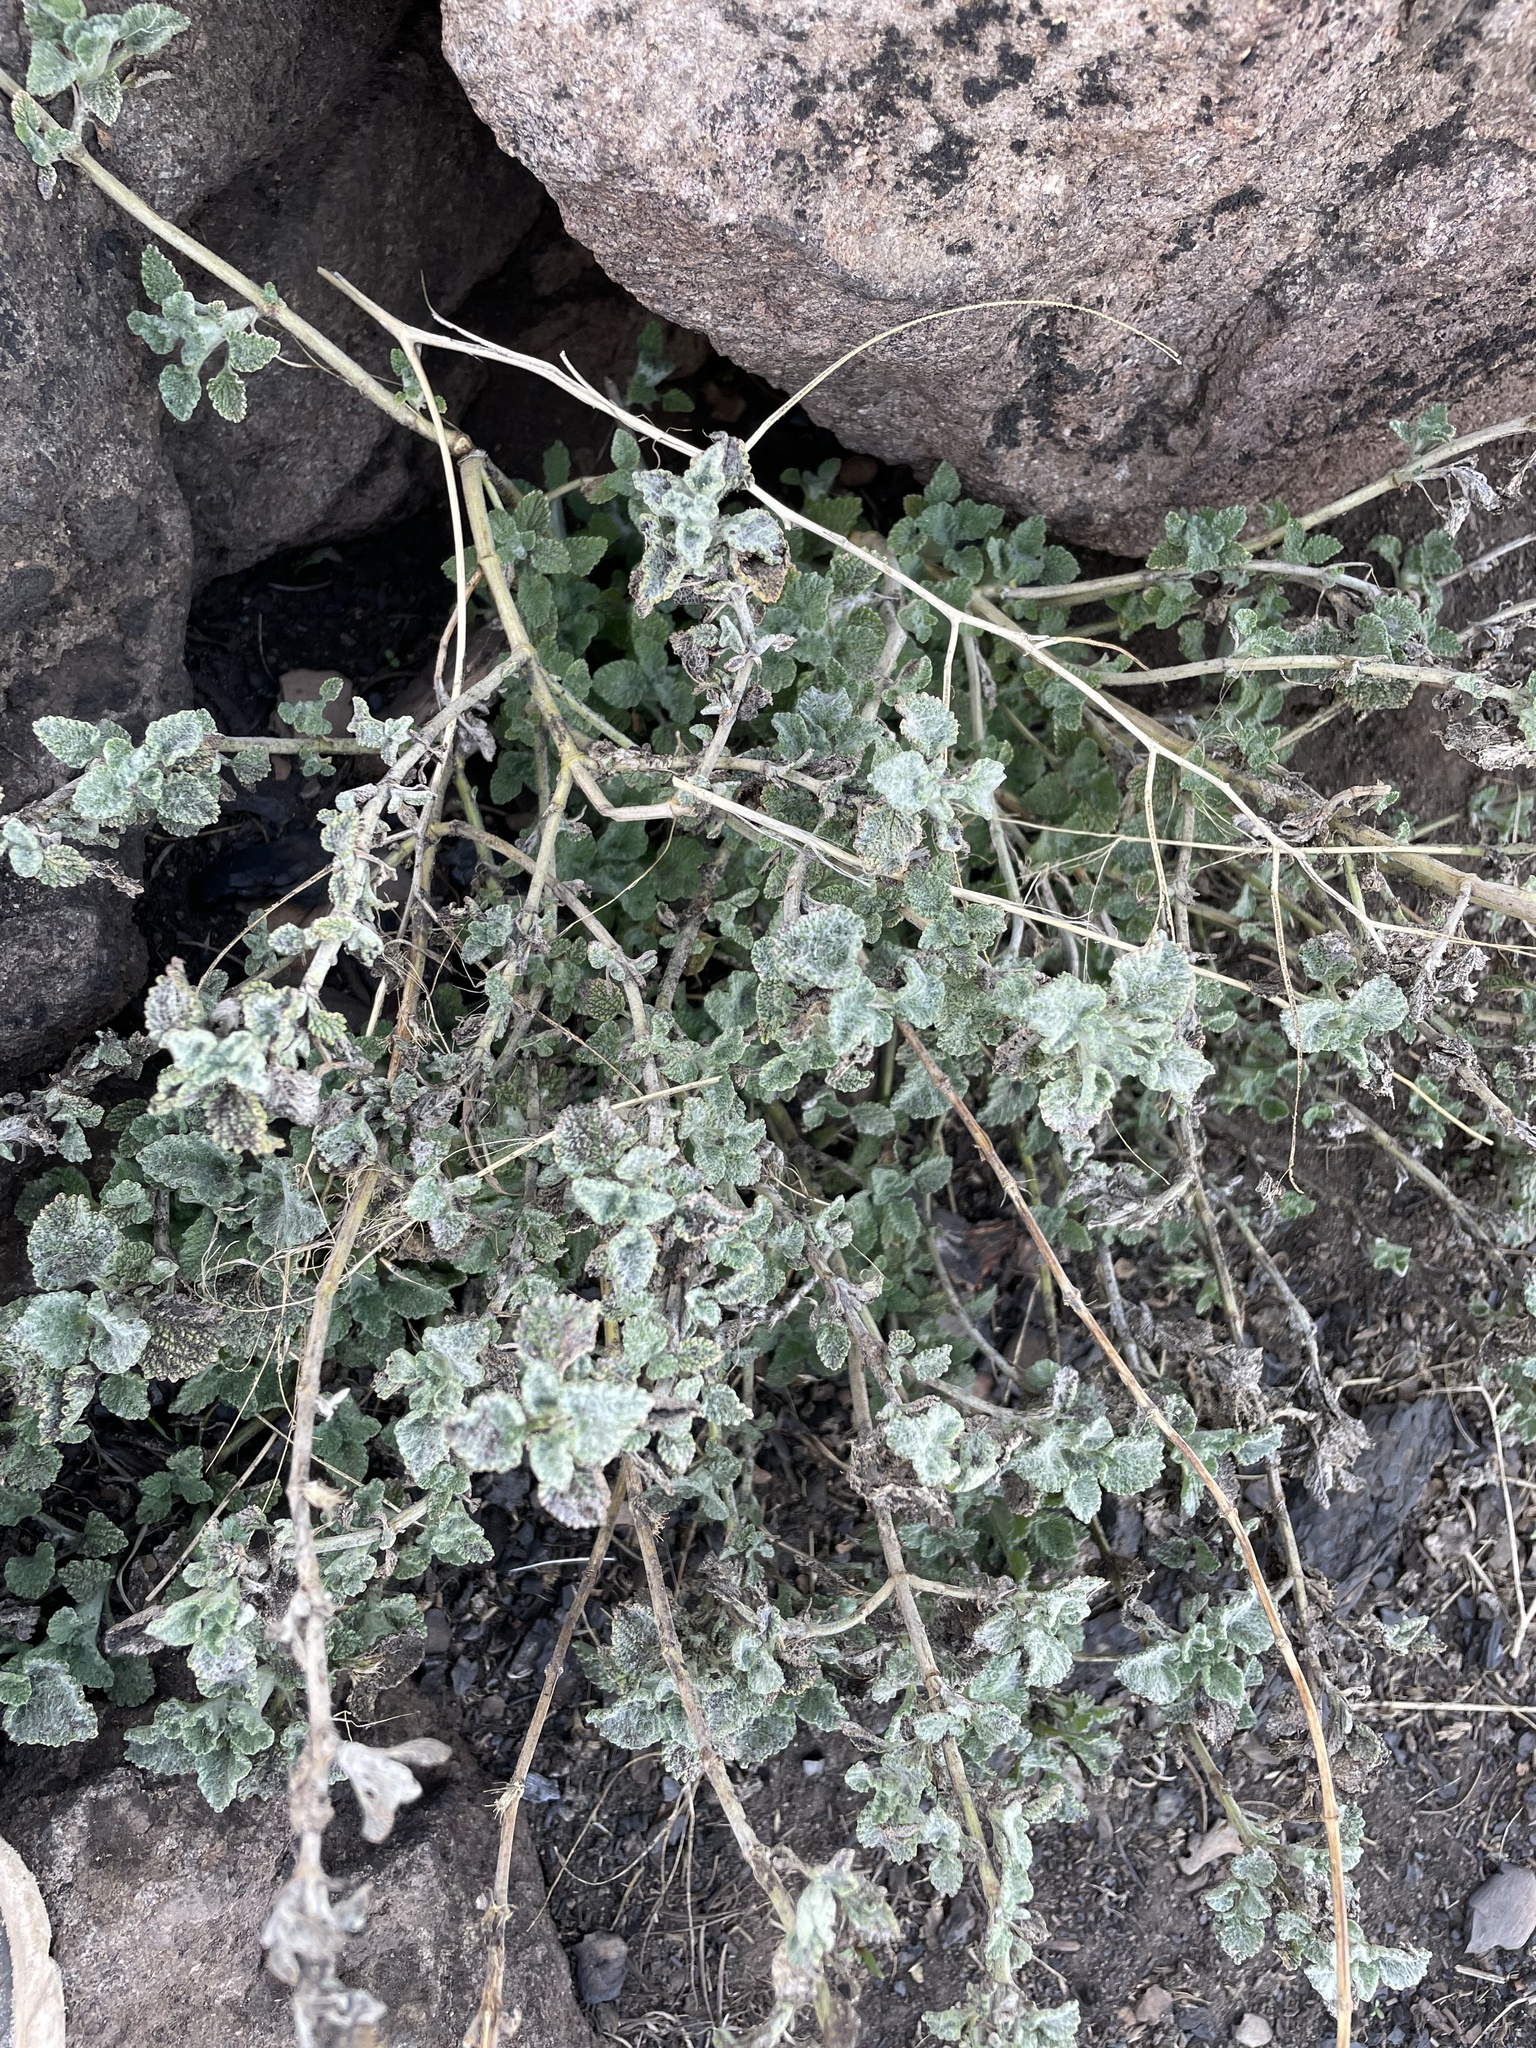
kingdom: Plantae
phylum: Tracheophyta
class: Magnoliopsida
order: Lamiales
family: Lamiaceae
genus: Marrubium
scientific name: Marrubium vulgare
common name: Horehound
